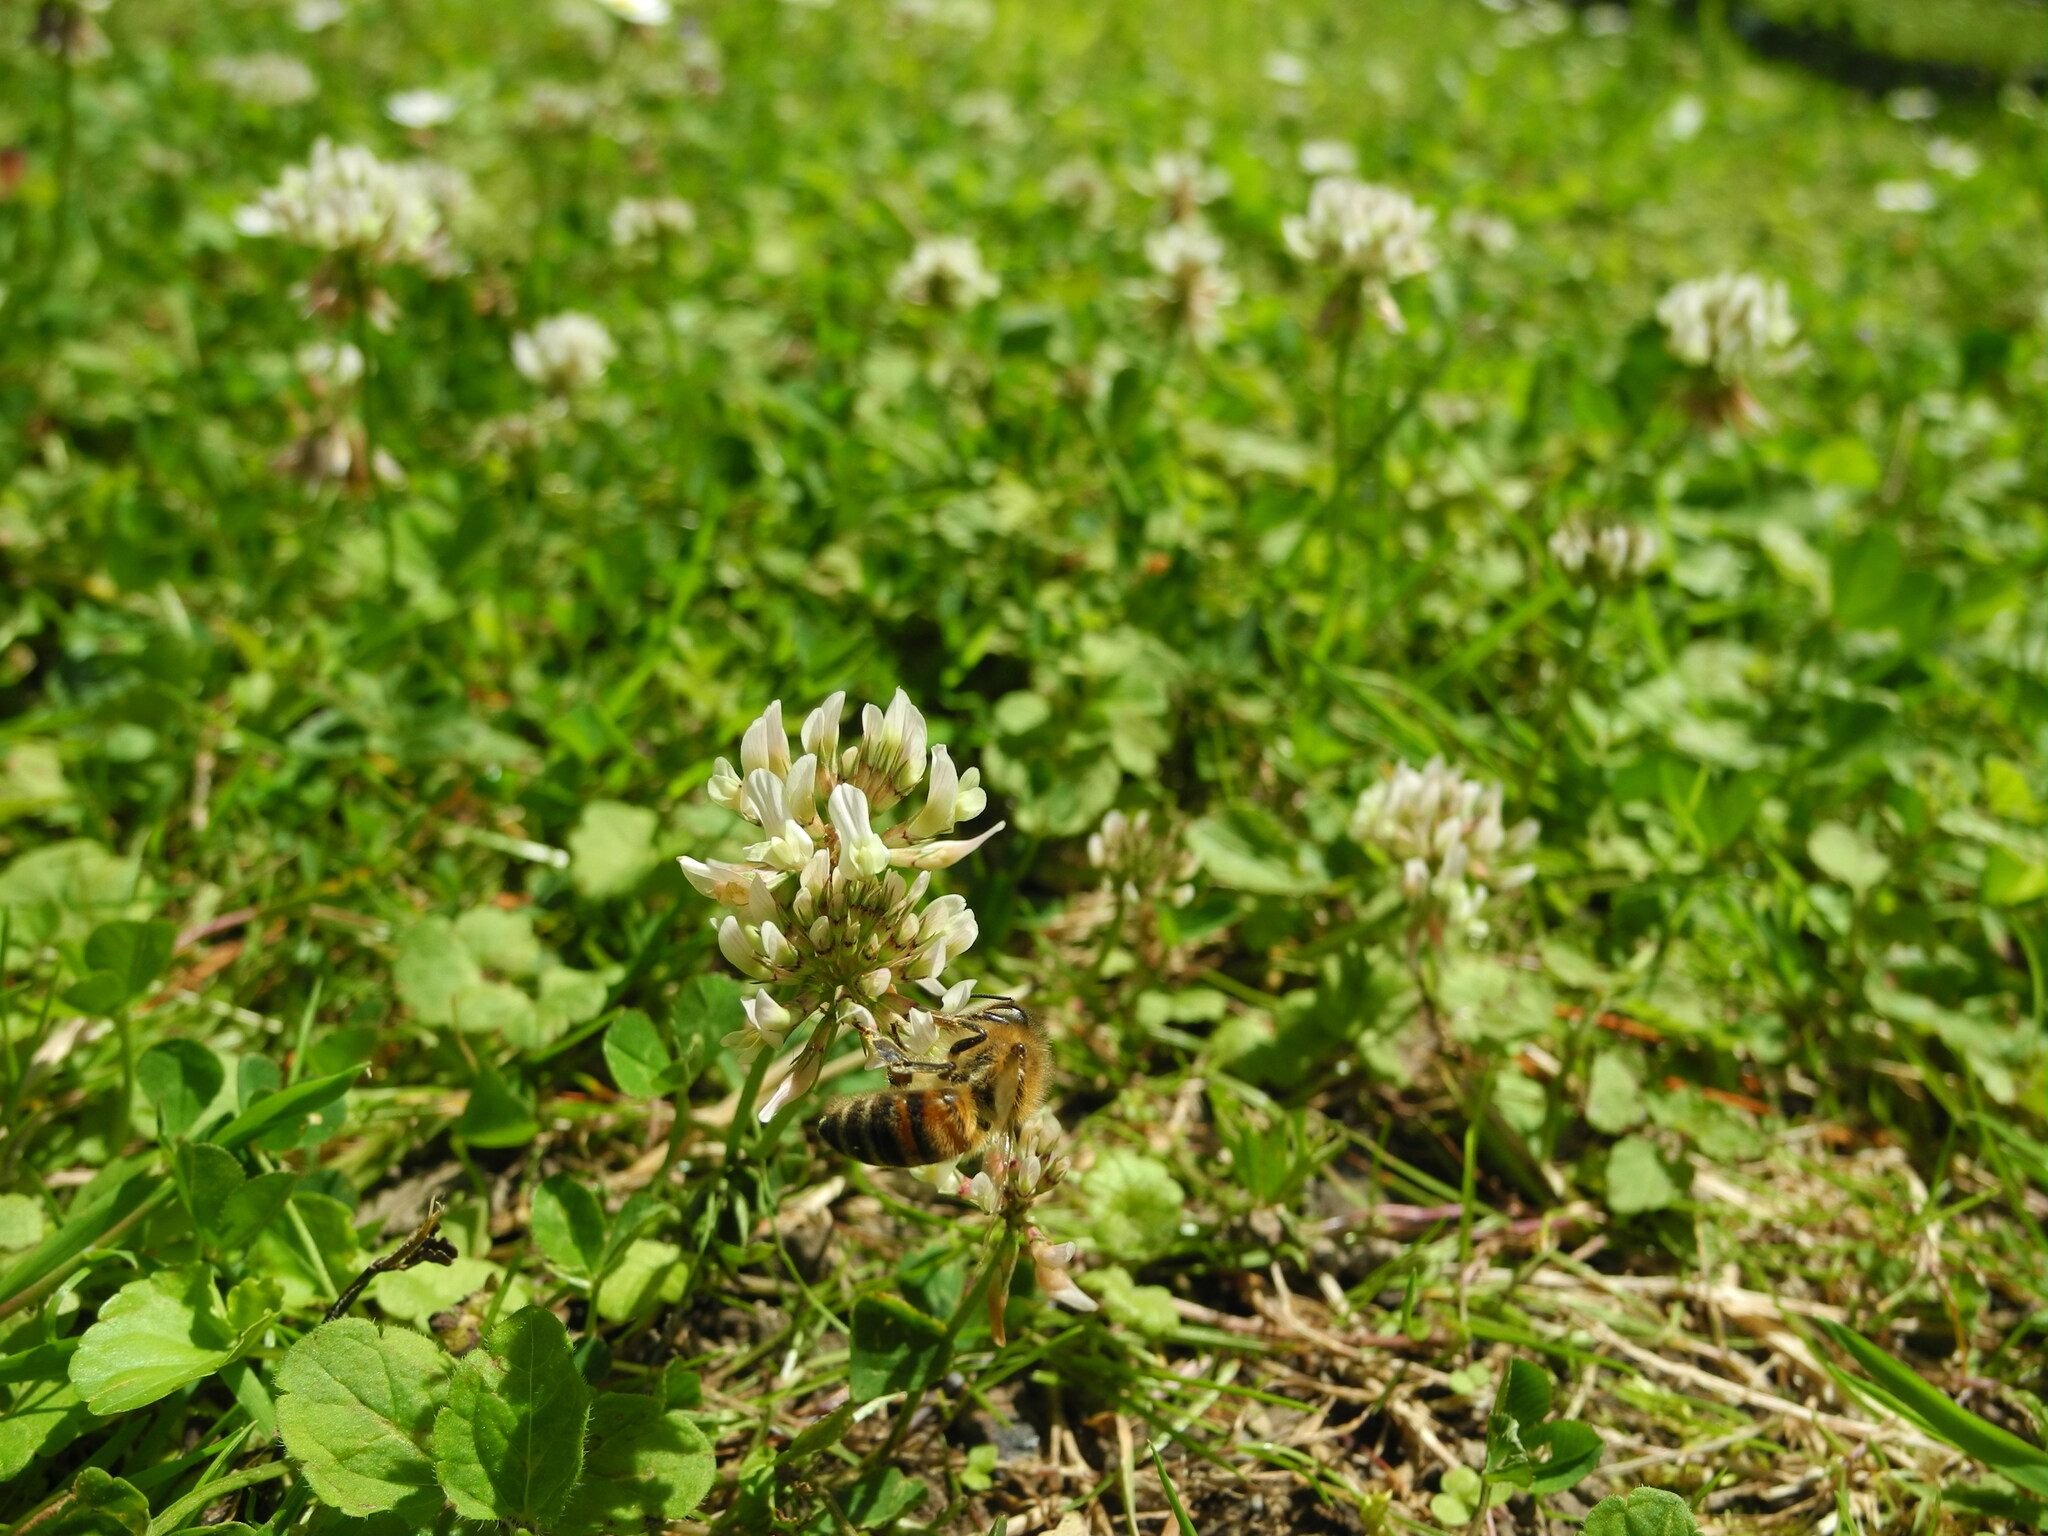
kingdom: Plantae
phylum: Tracheophyta
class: Magnoliopsida
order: Fabales
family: Fabaceae
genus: Trifolium
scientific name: Trifolium repens
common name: White clover
